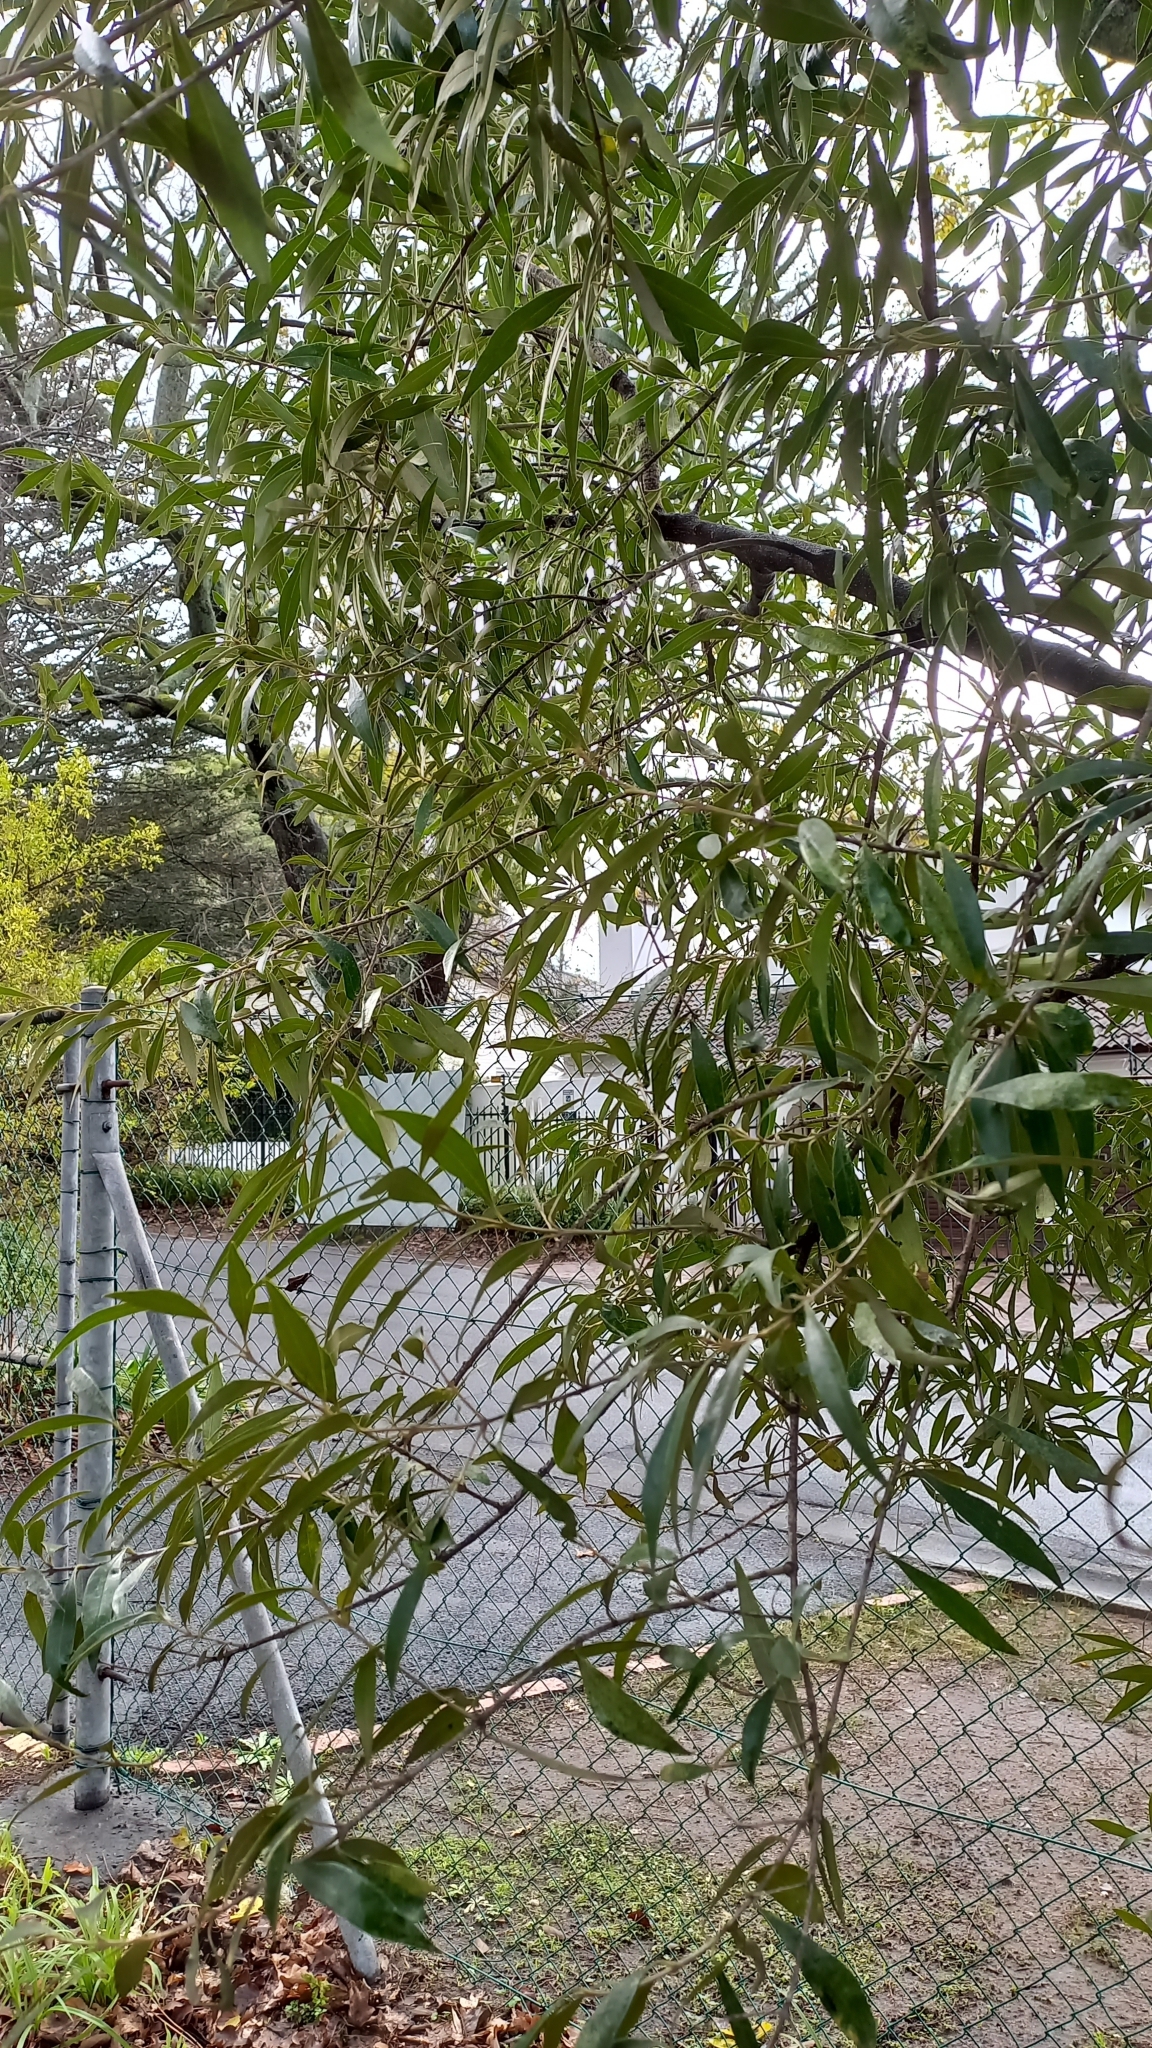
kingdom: Plantae
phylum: Tracheophyta
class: Magnoliopsida
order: Lamiales
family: Oleaceae
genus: Olea
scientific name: Olea europaea
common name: Olive
